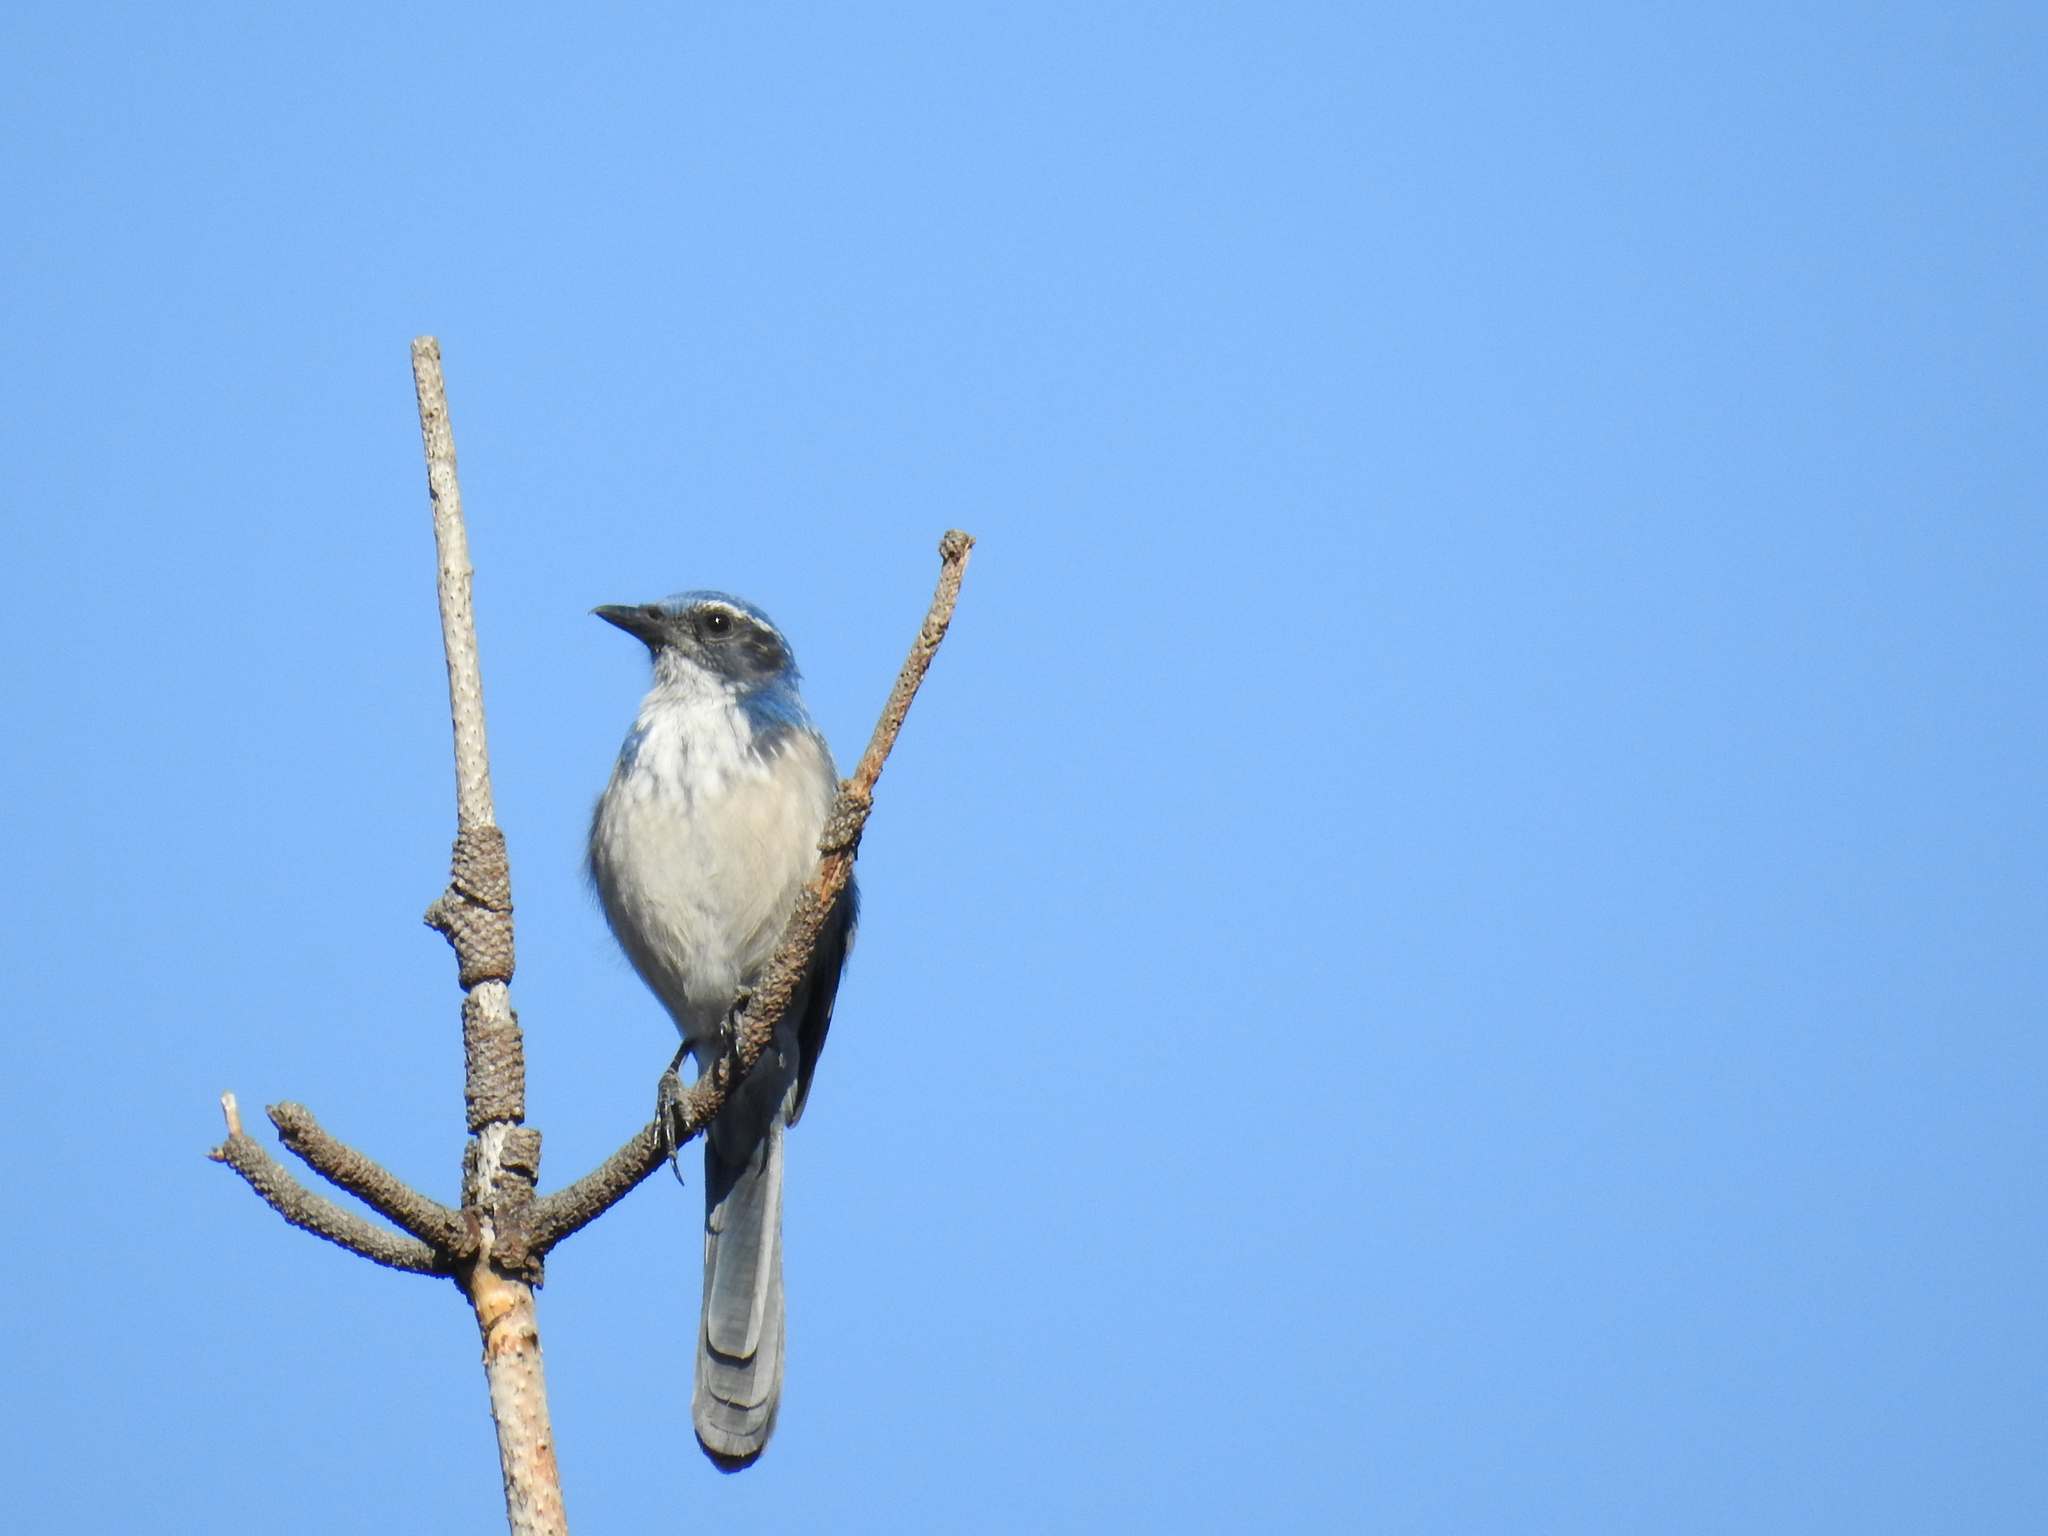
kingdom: Animalia
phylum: Chordata
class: Aves
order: Passeriformes
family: Corvidae
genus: Aphelocoma
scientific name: Aphelocoma californica
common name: California scrub-jay
